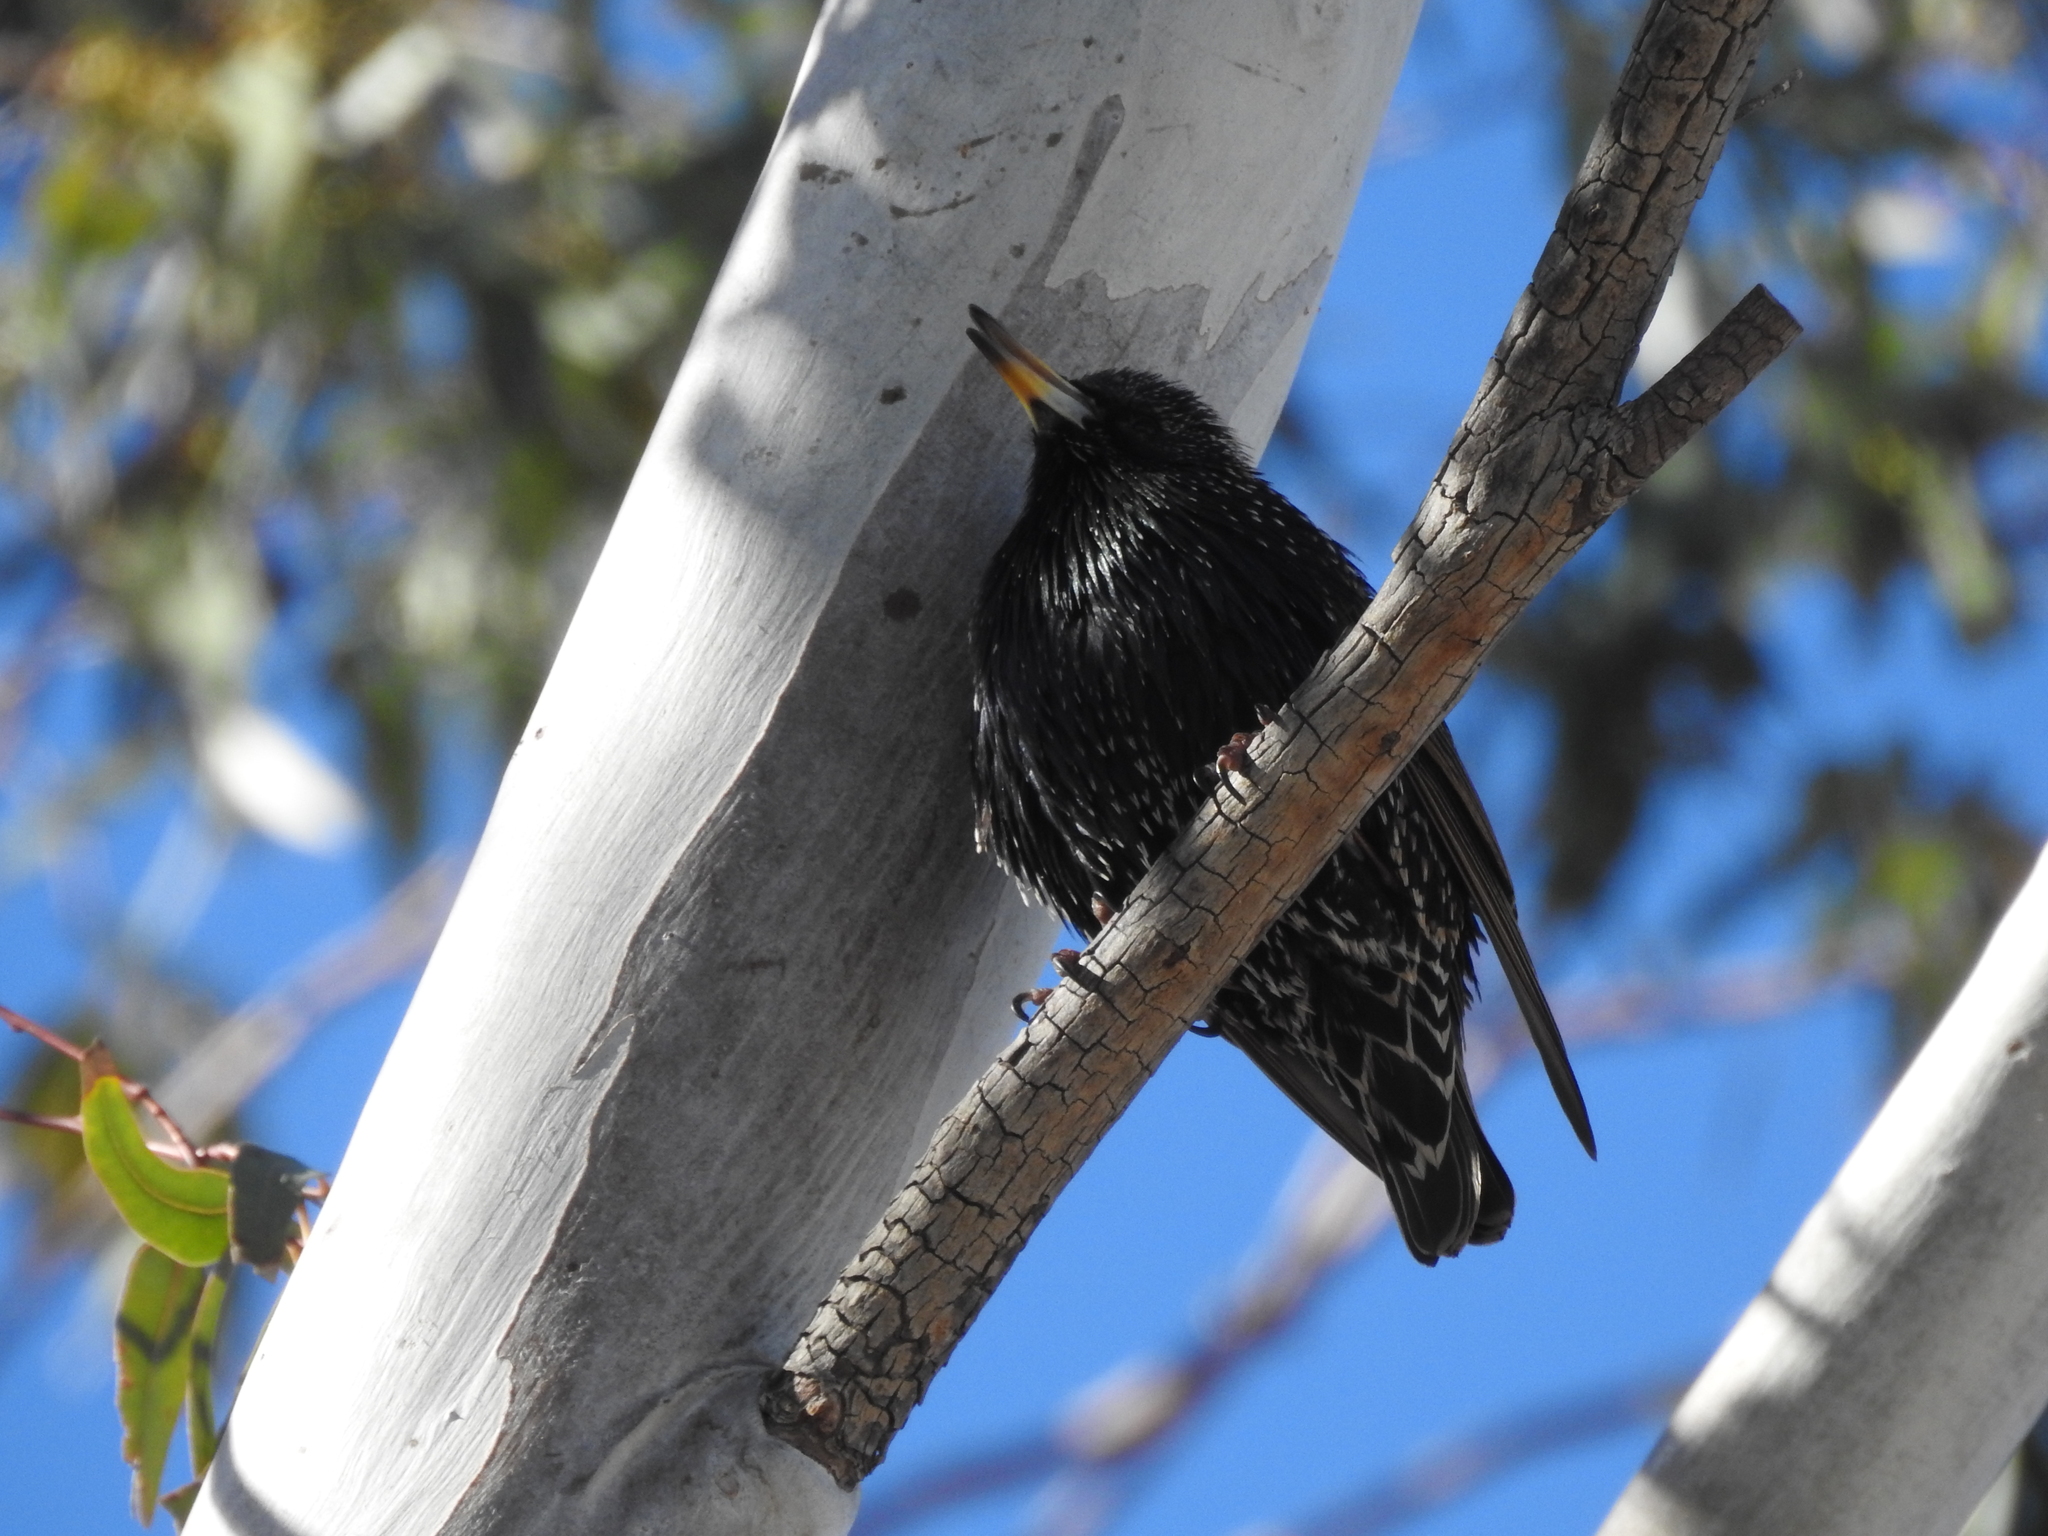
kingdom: Animalia
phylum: Chordata
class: Aves
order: Passeriformes
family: Sturnidae
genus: Sturnus
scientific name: Sturnus vulgaris
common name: Common starling
